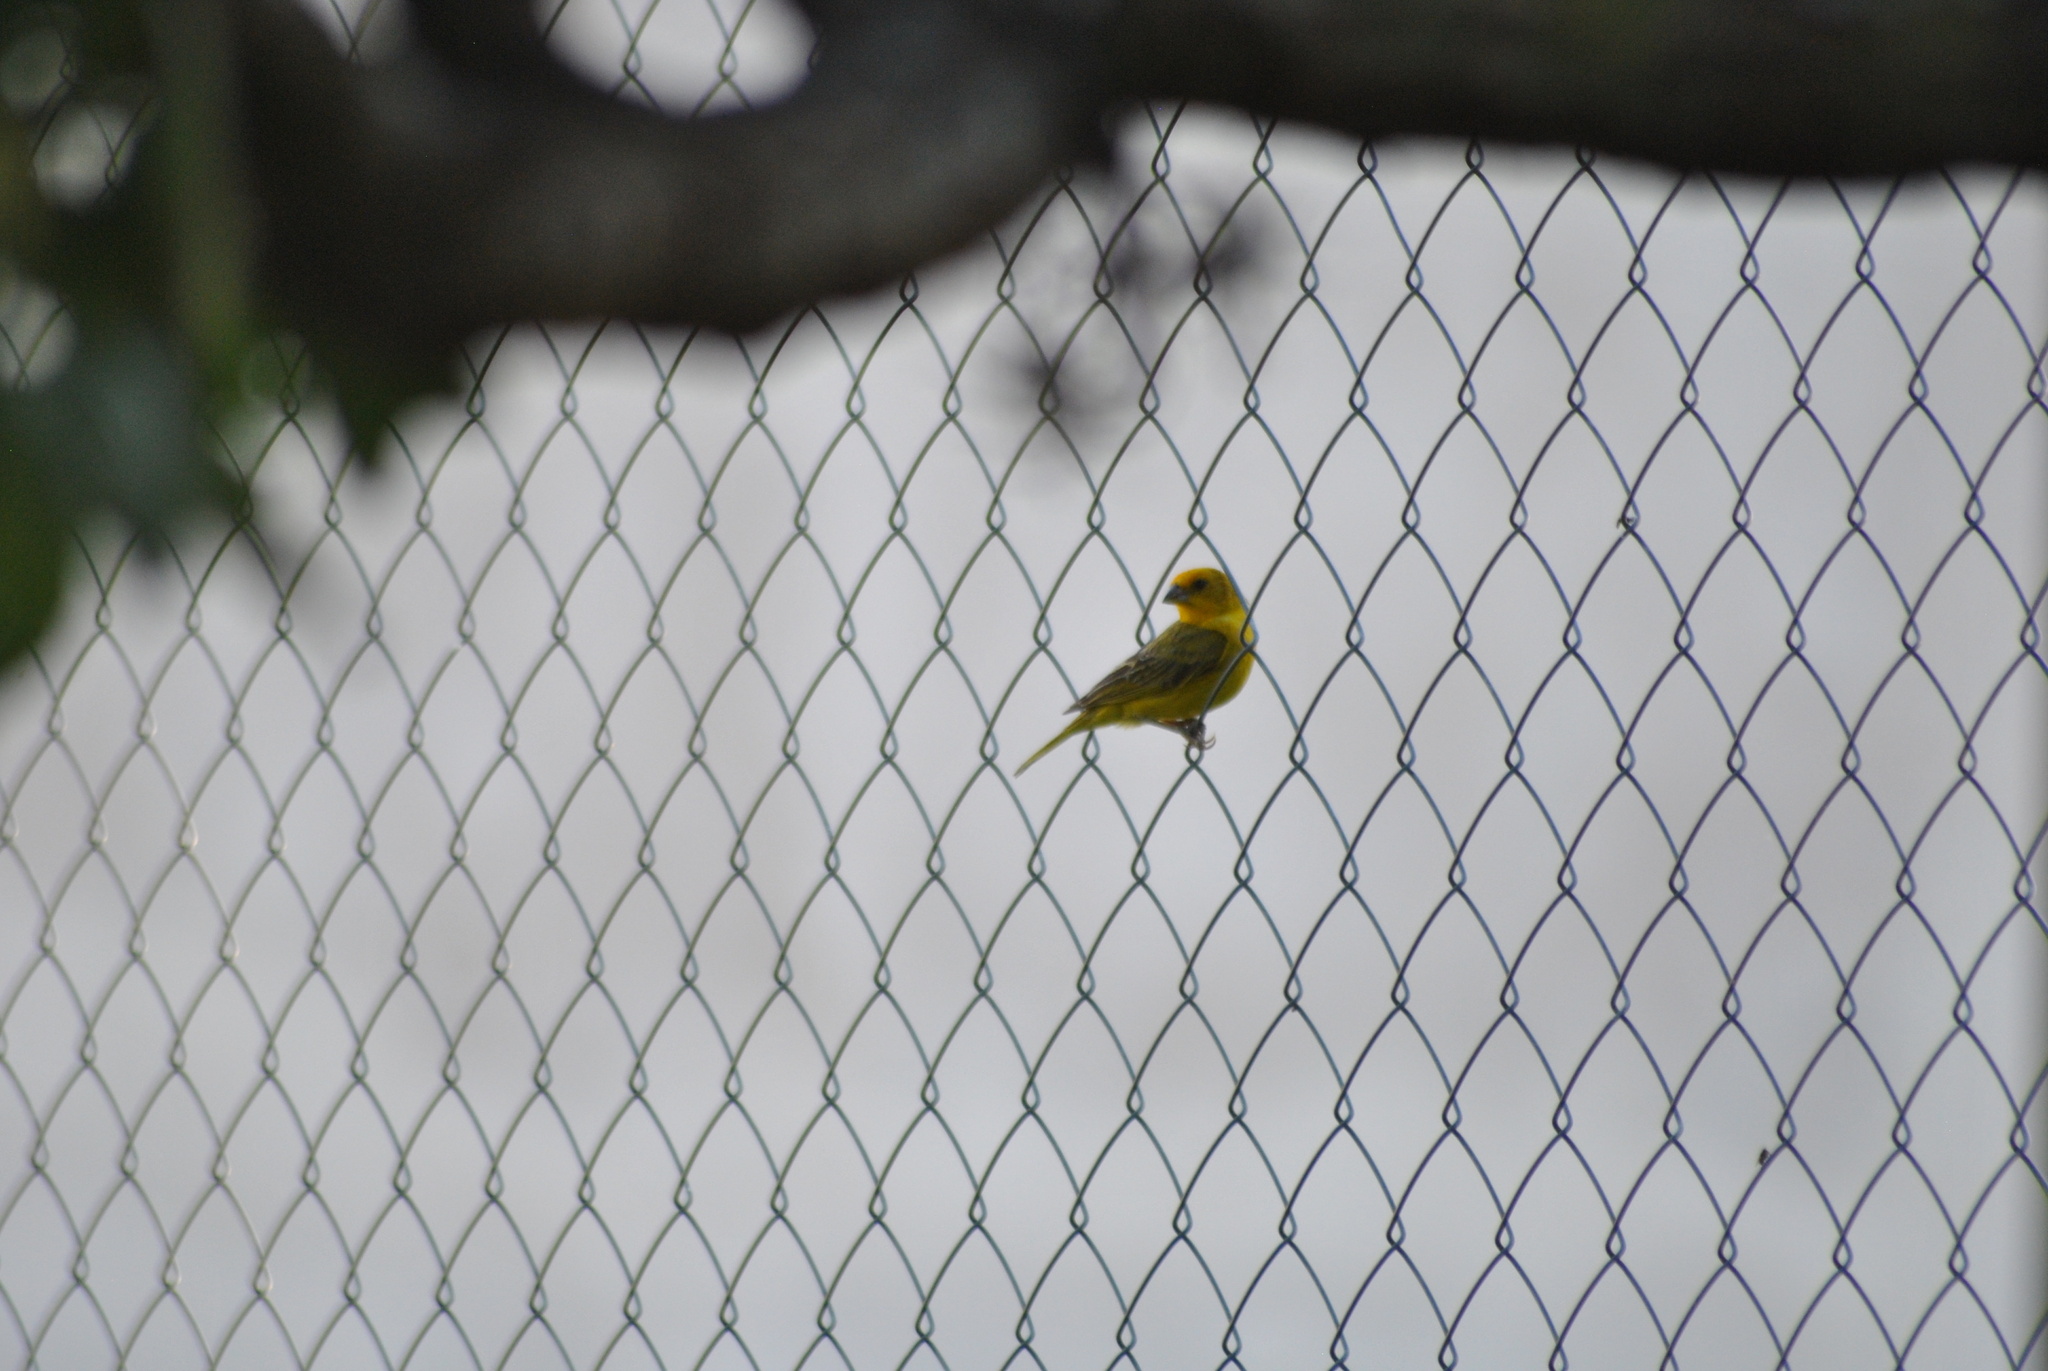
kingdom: Animalia
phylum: Chordata
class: Aves
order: Passeriformes
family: Thraupidae
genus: Sicalis
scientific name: Sicalis flaveola
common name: Saffron finch
